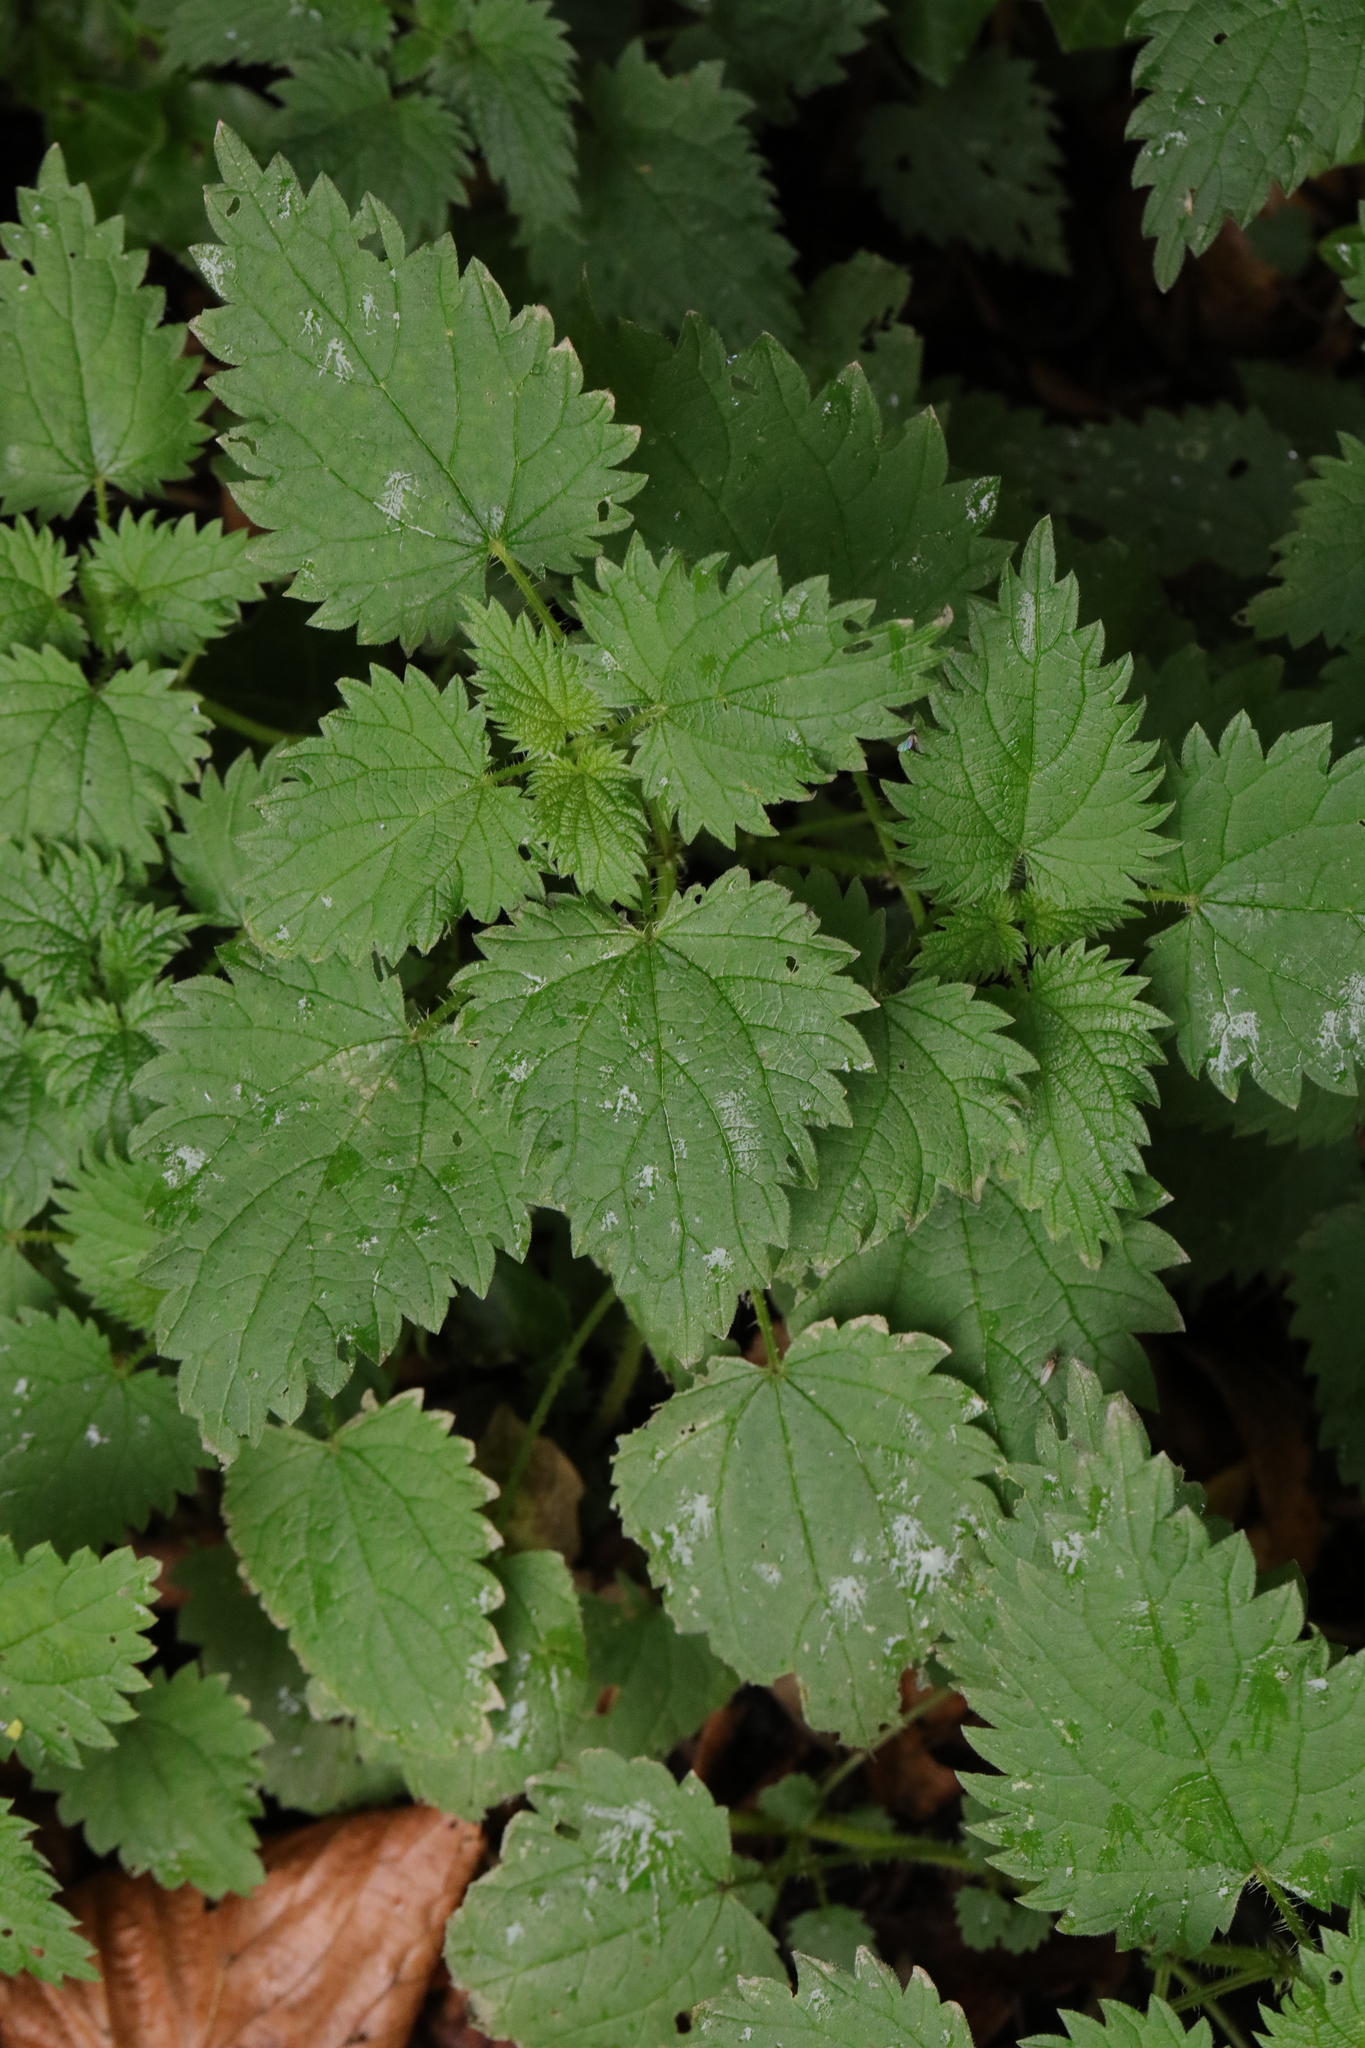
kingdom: Plantae
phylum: Tracheophyta
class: Magnoliopsida
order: Rosales
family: Urticaceae
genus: Urtica
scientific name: Urtica dioica
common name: Common nettle
